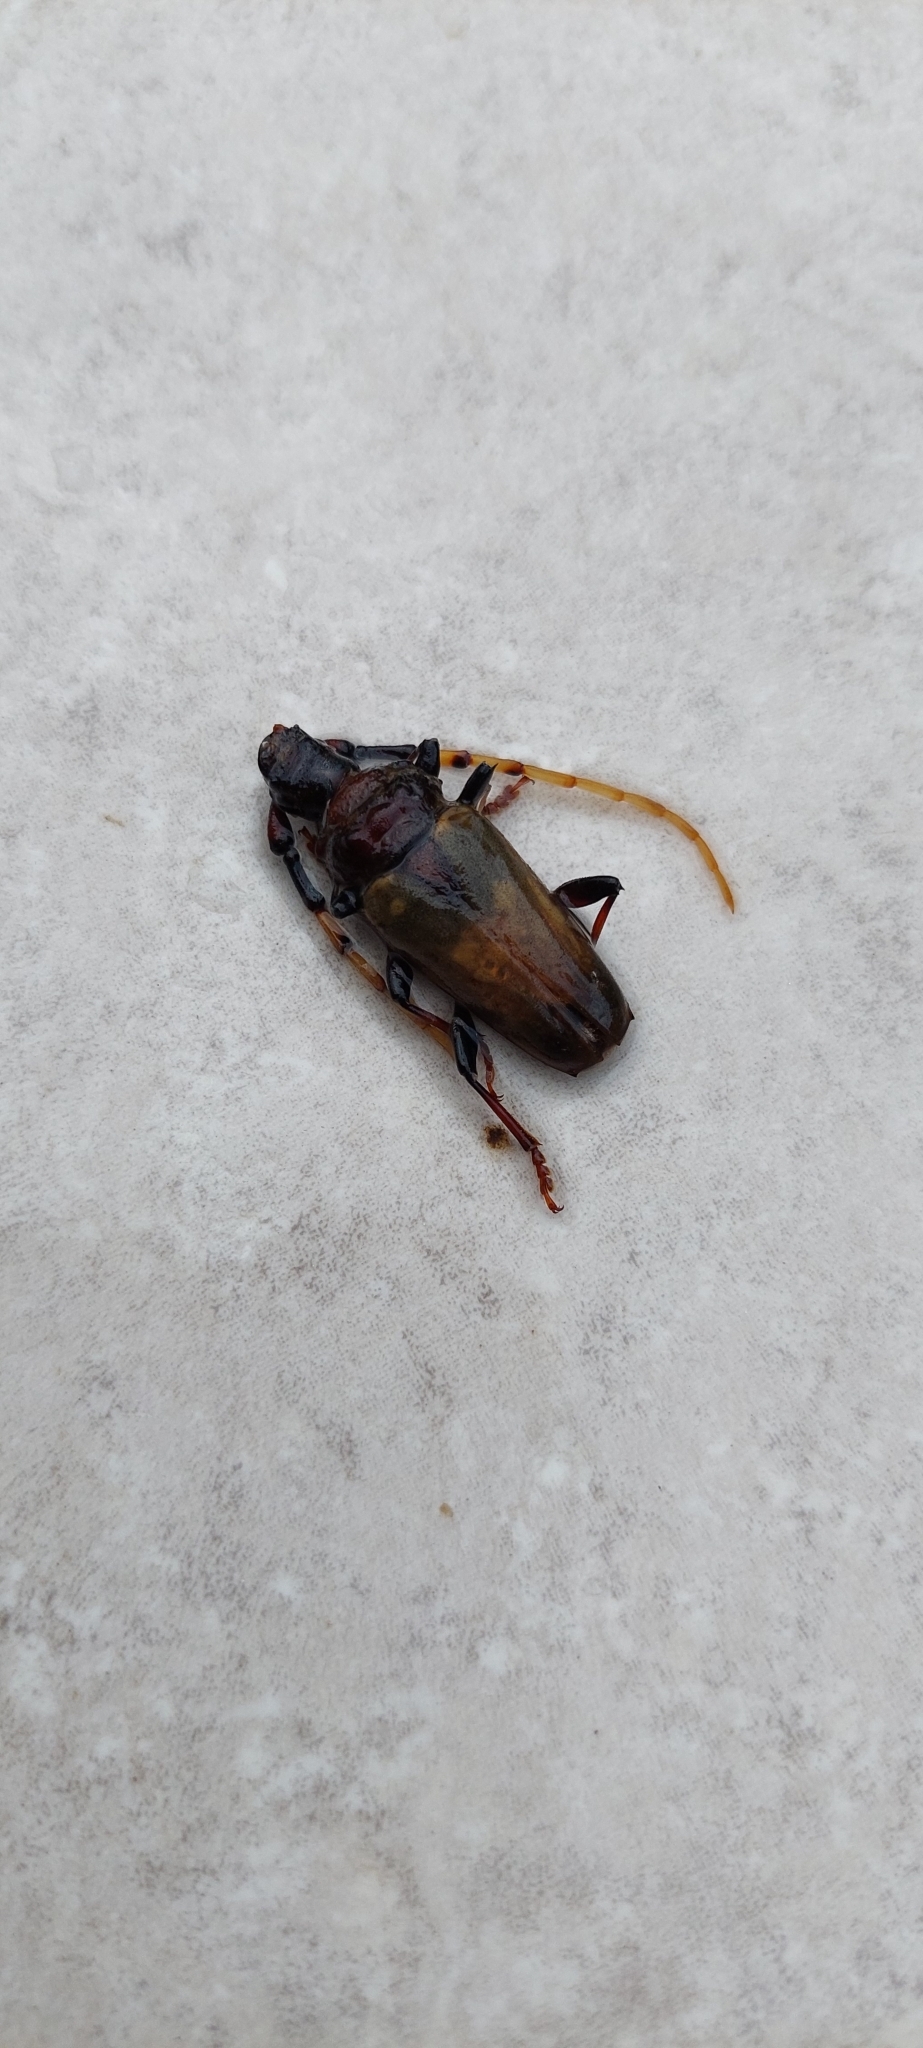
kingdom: Animalia
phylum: Arthropoda
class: Insecta
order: Coleoptera
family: Cerambycidae
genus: Retrachydes
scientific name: Retrachydes thoracicus
